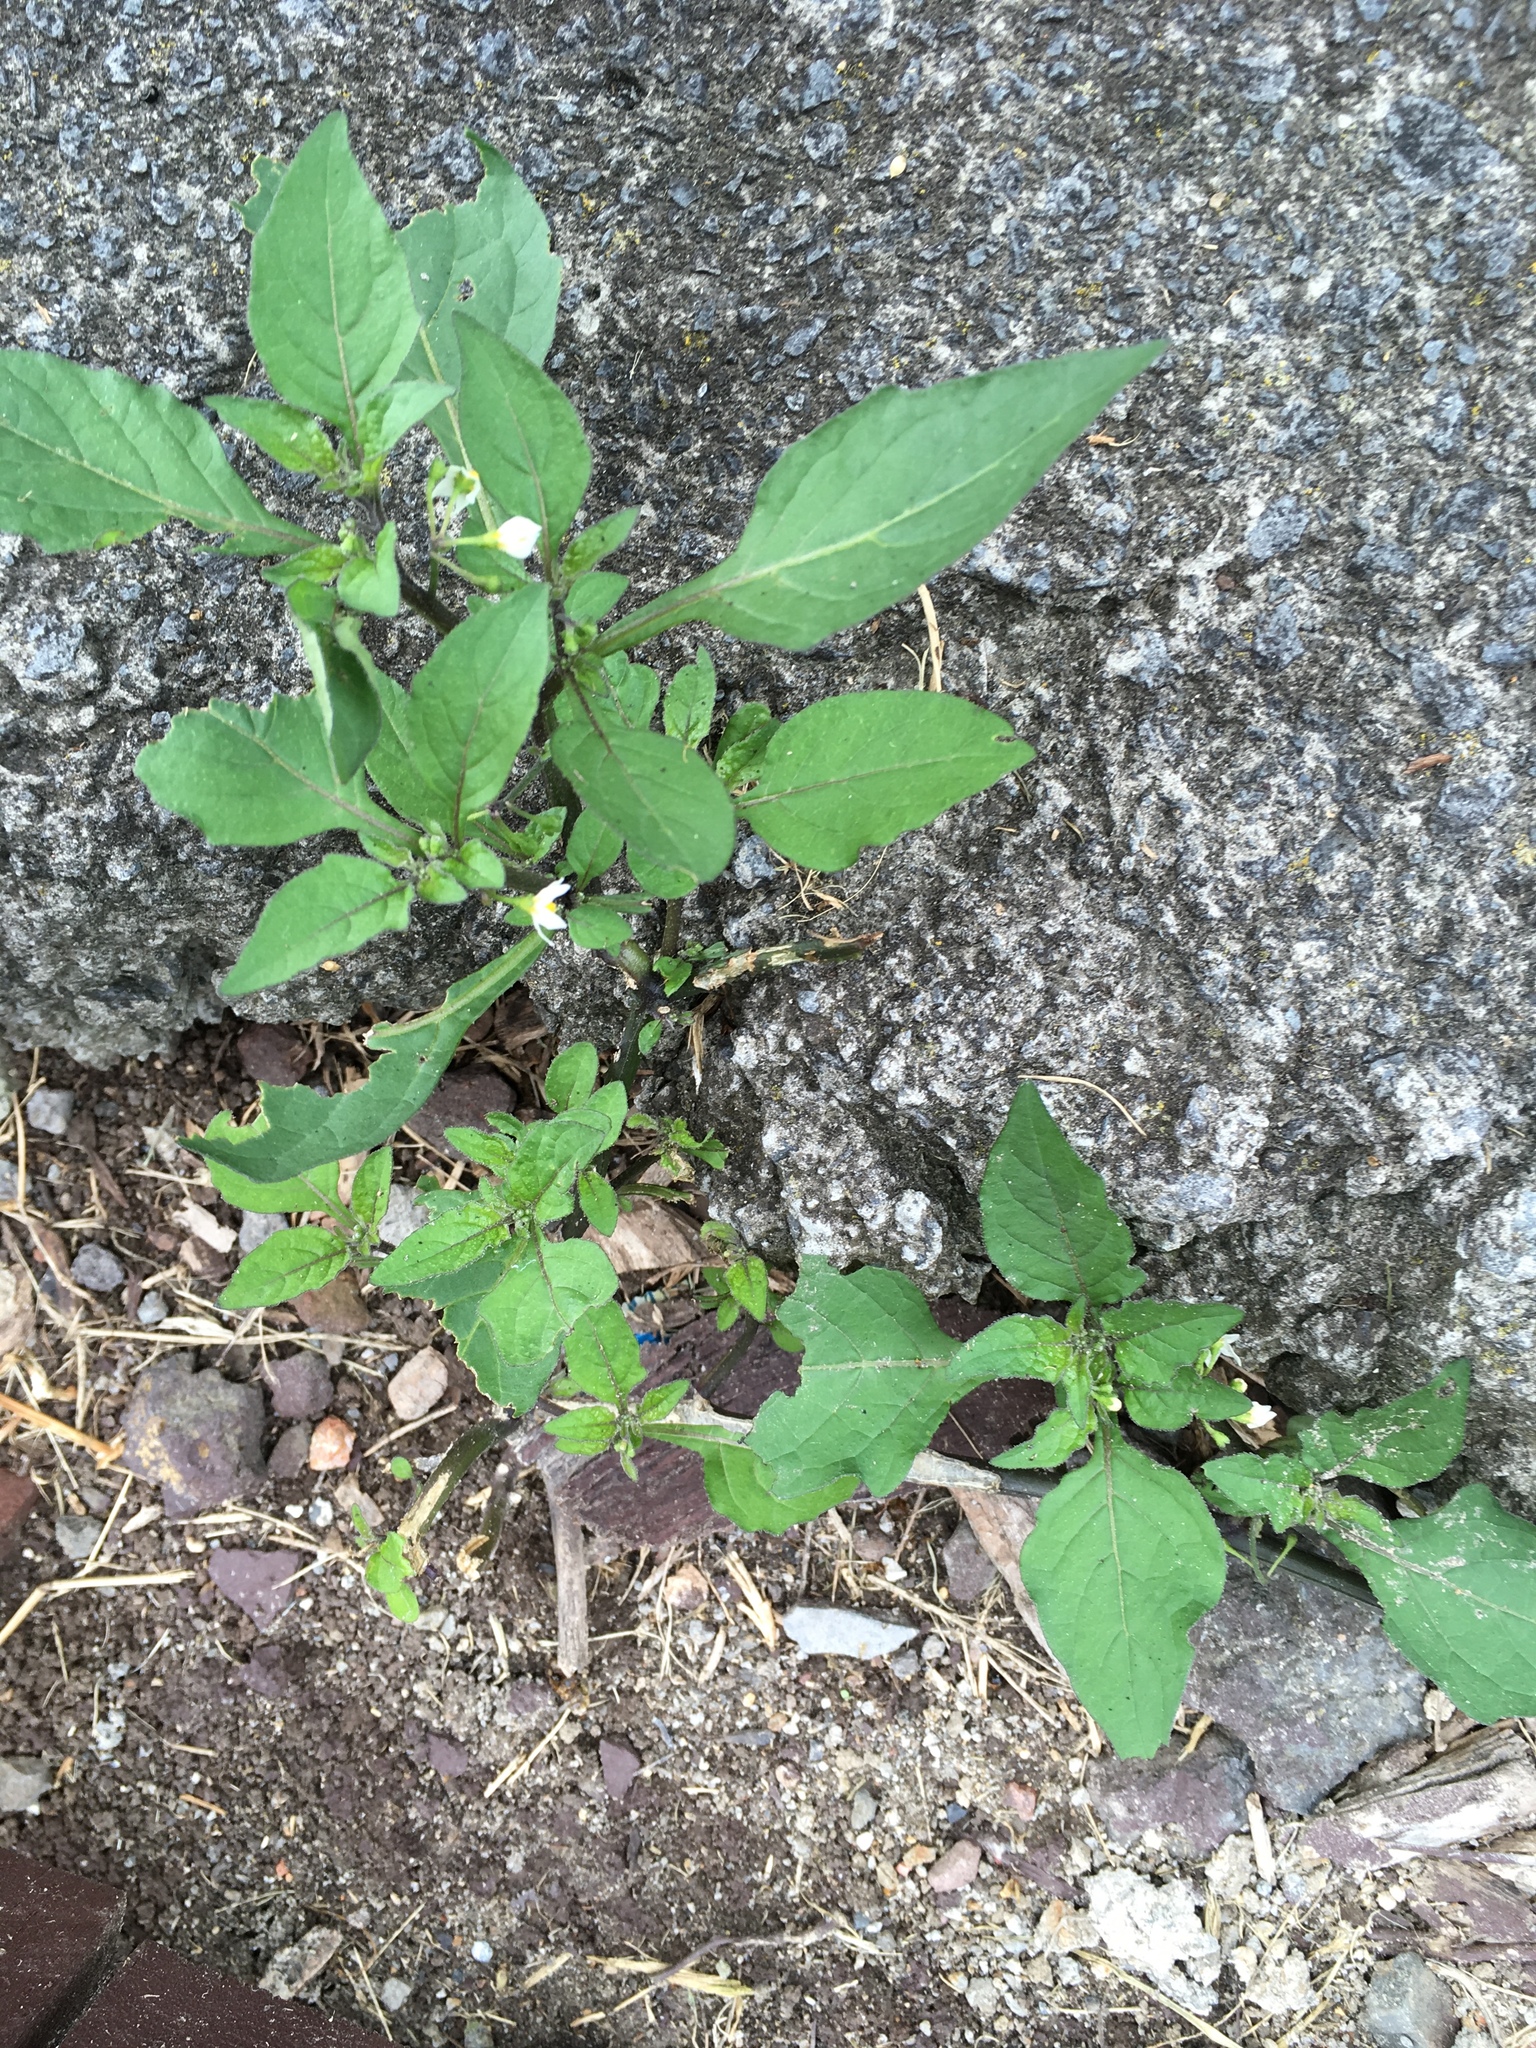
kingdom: Plantae
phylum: Tracheophyta
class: Magnoliopsida
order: Solanales
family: Solanaceae
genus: Solanum
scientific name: Solanum nigrum
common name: Black nightshade
